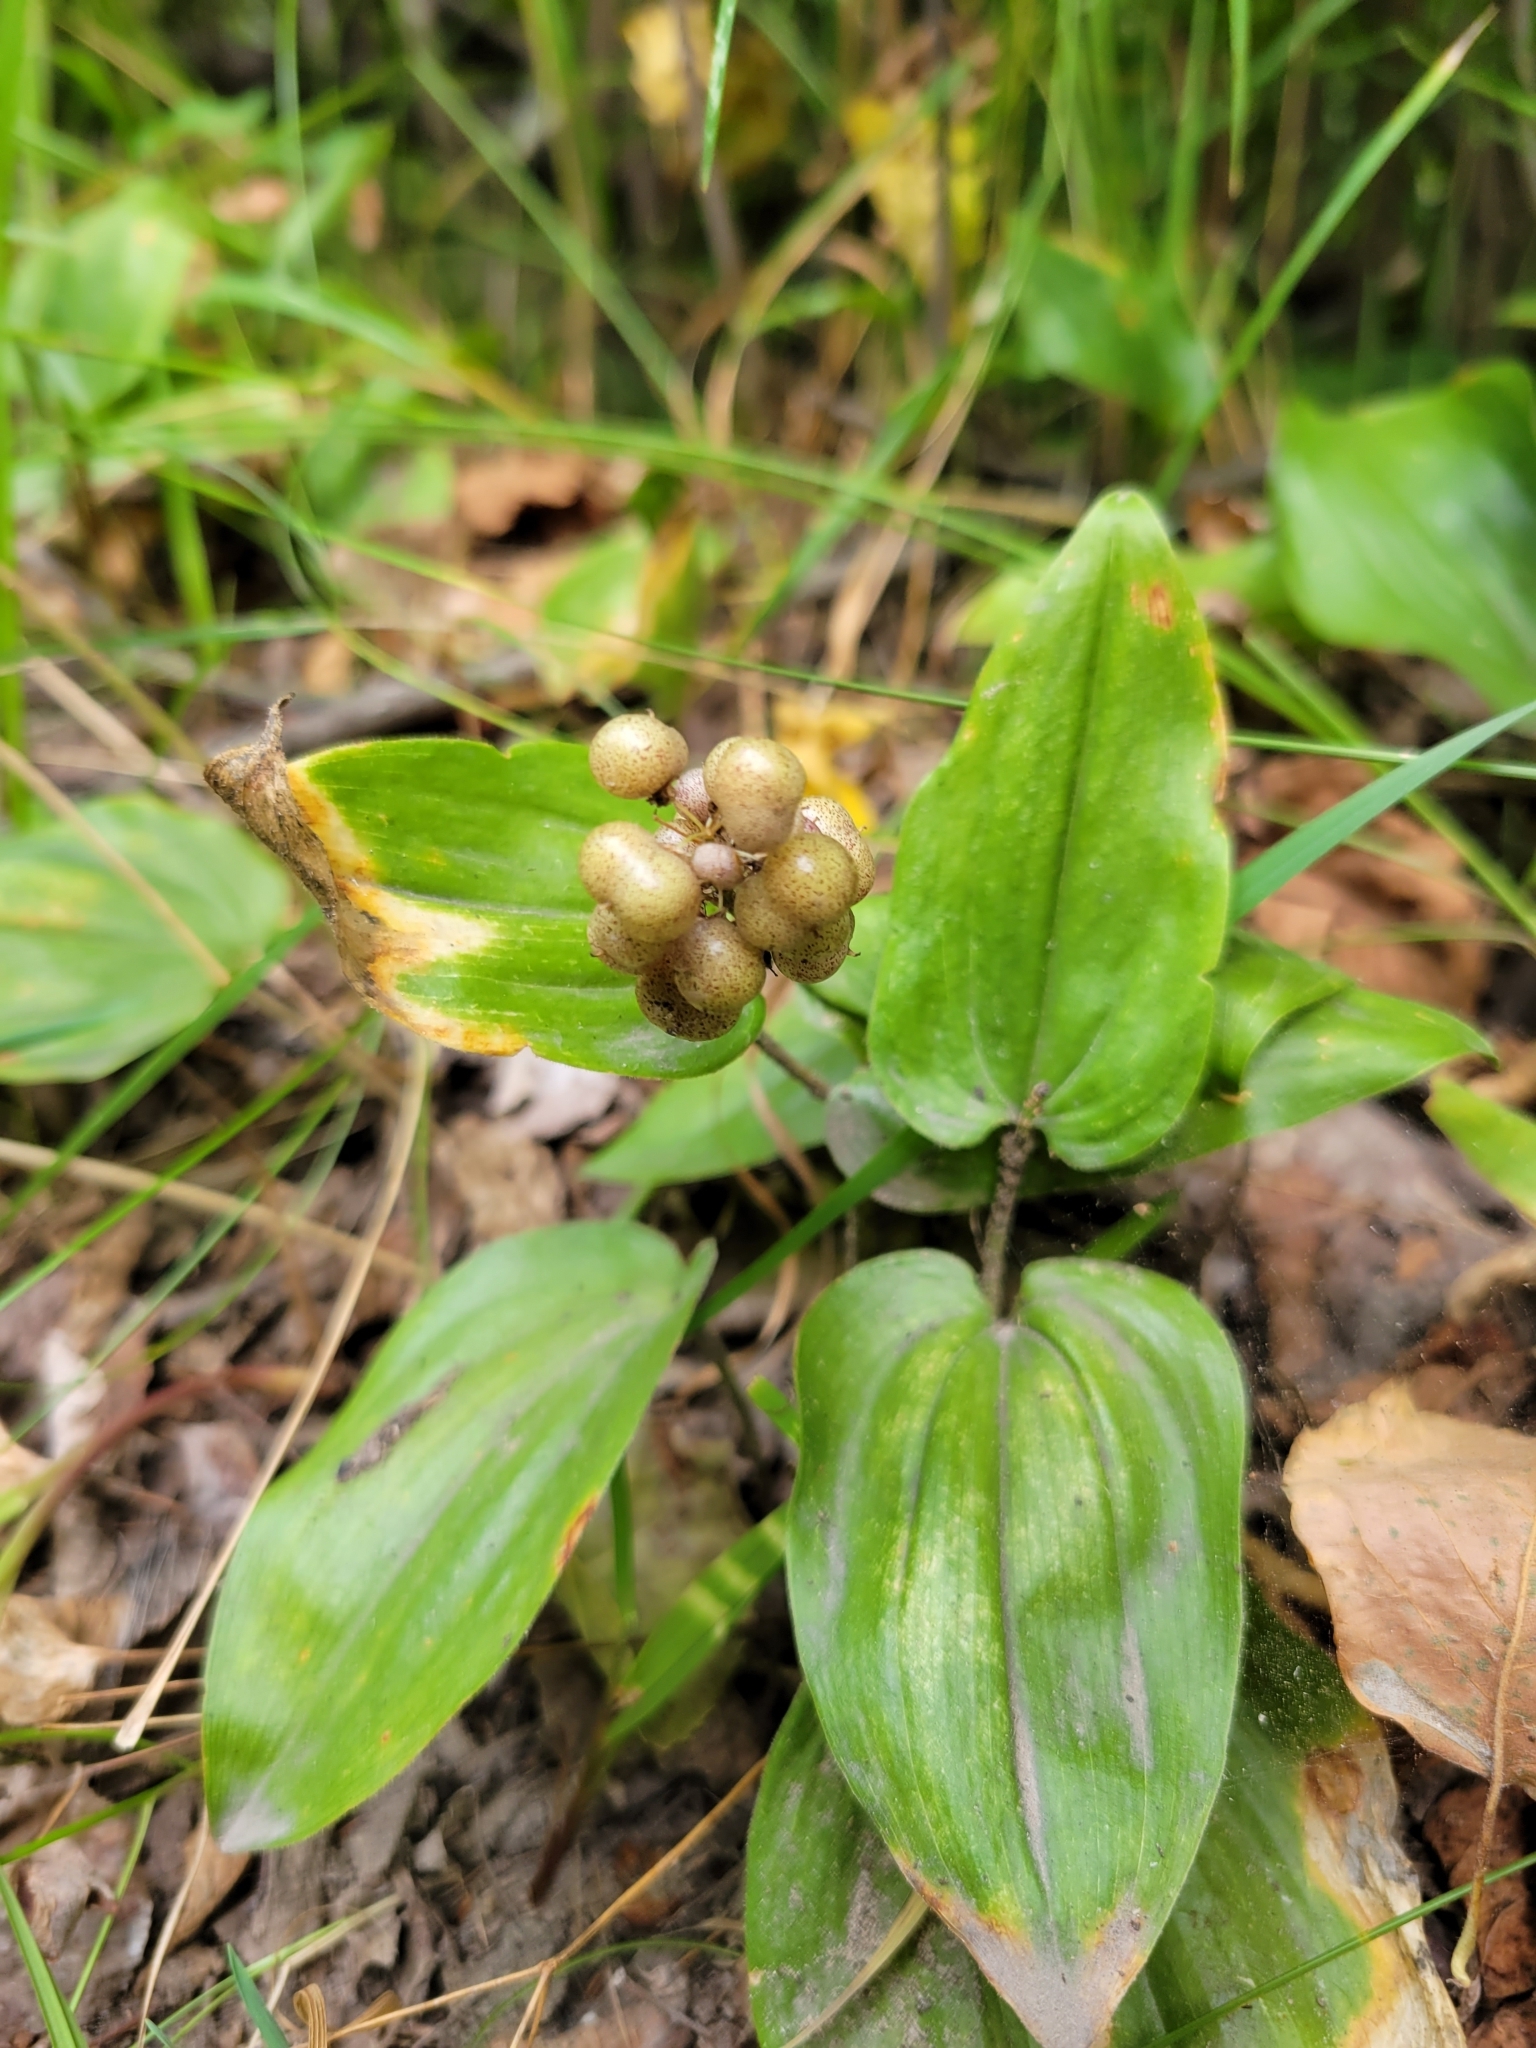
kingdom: Plantae
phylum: Tracheophyta
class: Liliopsida
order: Asparagales
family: Asparagaceae
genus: Maianthemum
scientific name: Maianthemum canadense
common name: False lily-of-the-valley
